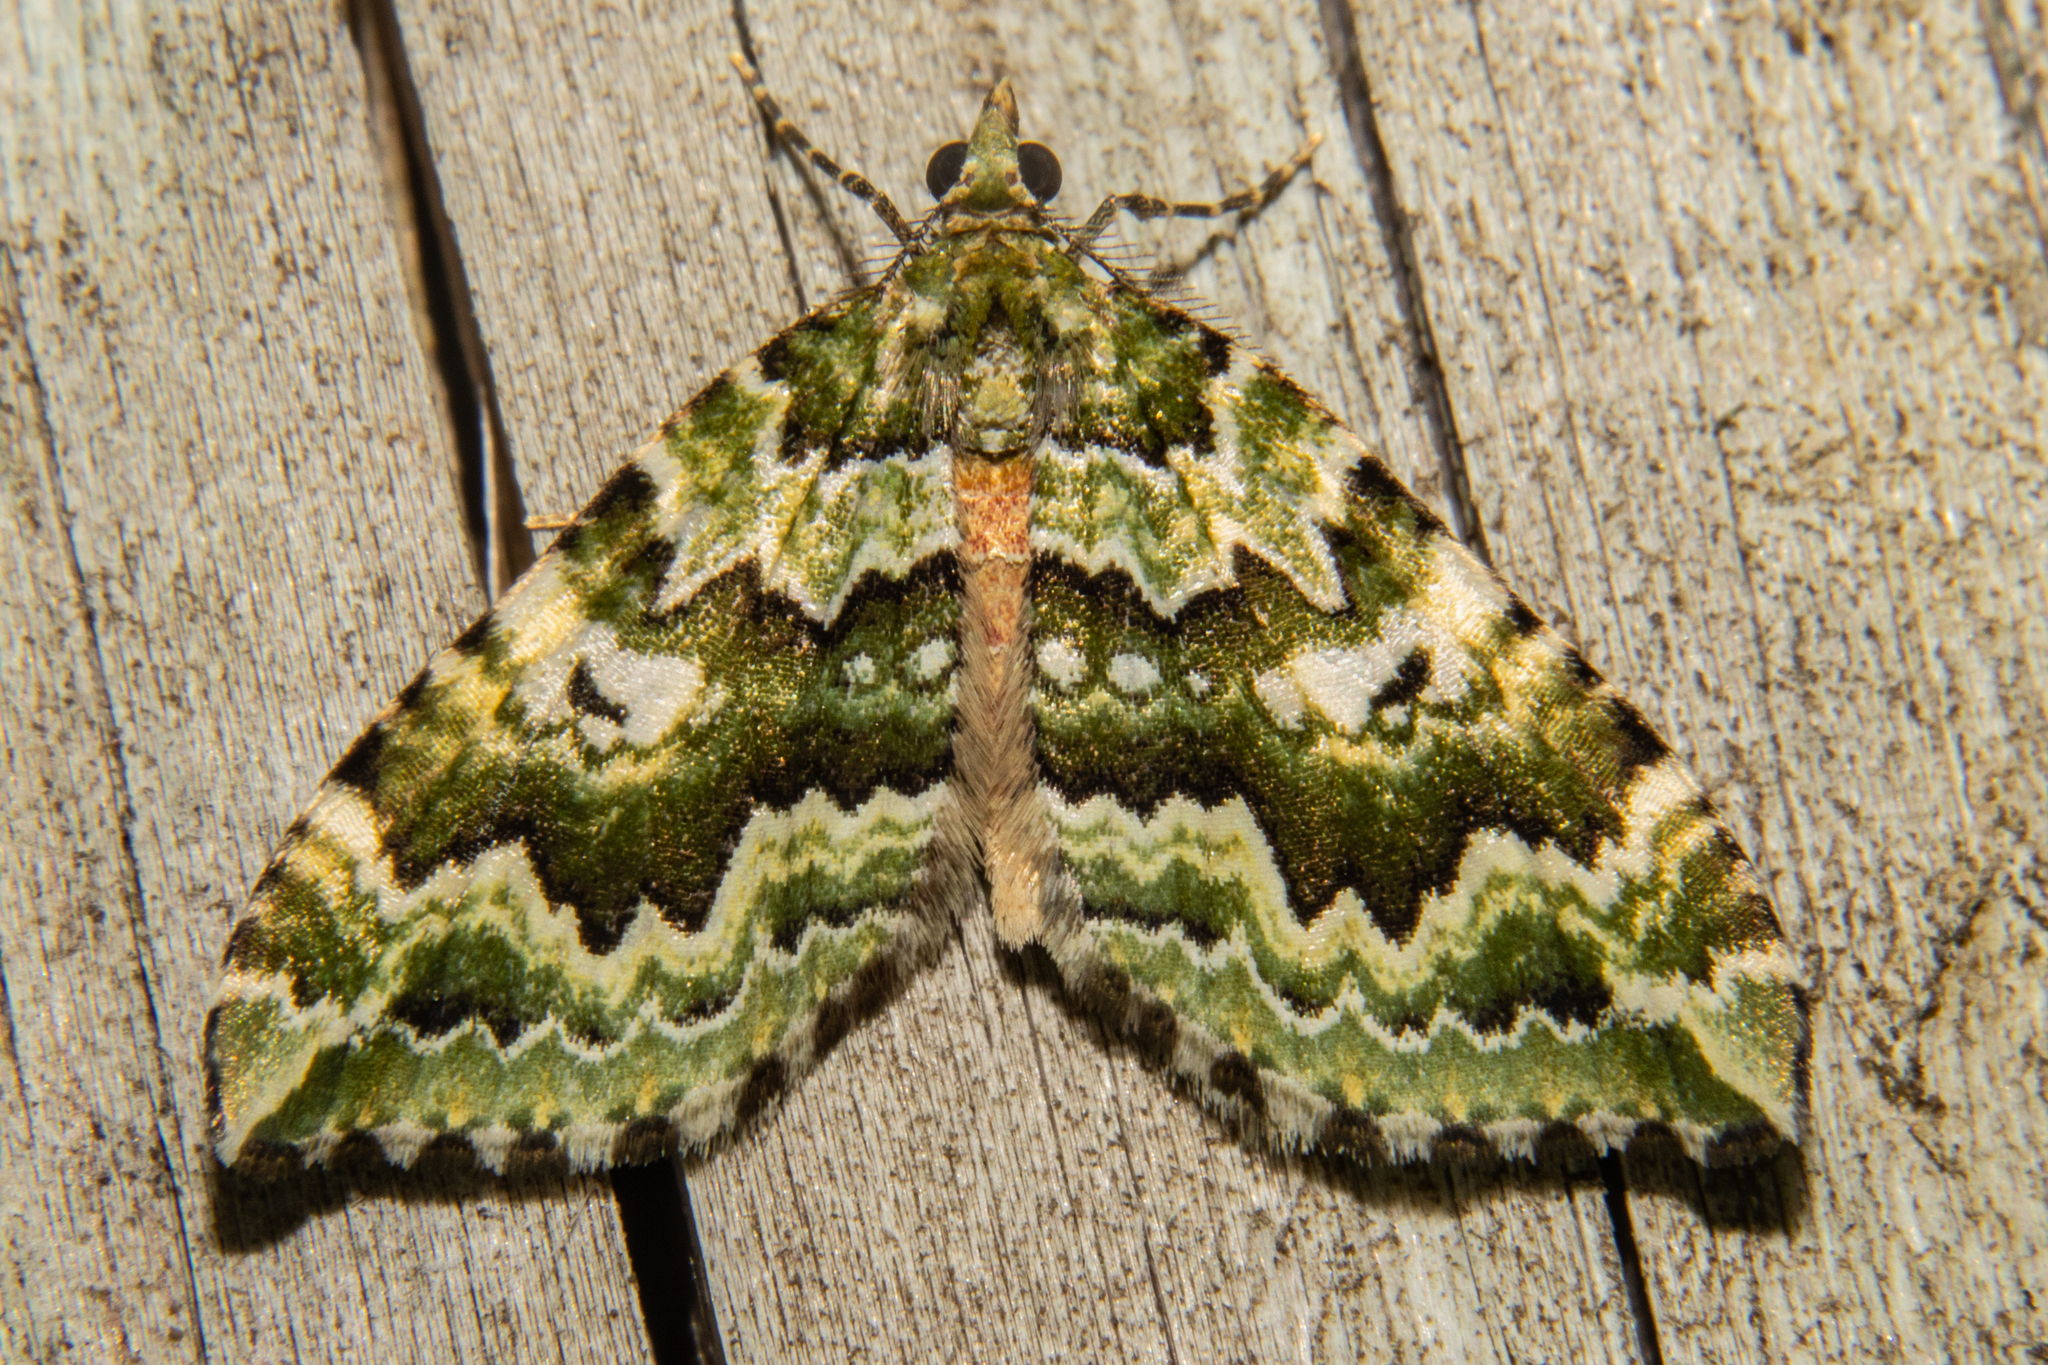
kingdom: Animalia
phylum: Arthropoda
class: Insecta
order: Lepidoptera
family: Geometridae
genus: Asaphodes
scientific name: Asaphodes beata
